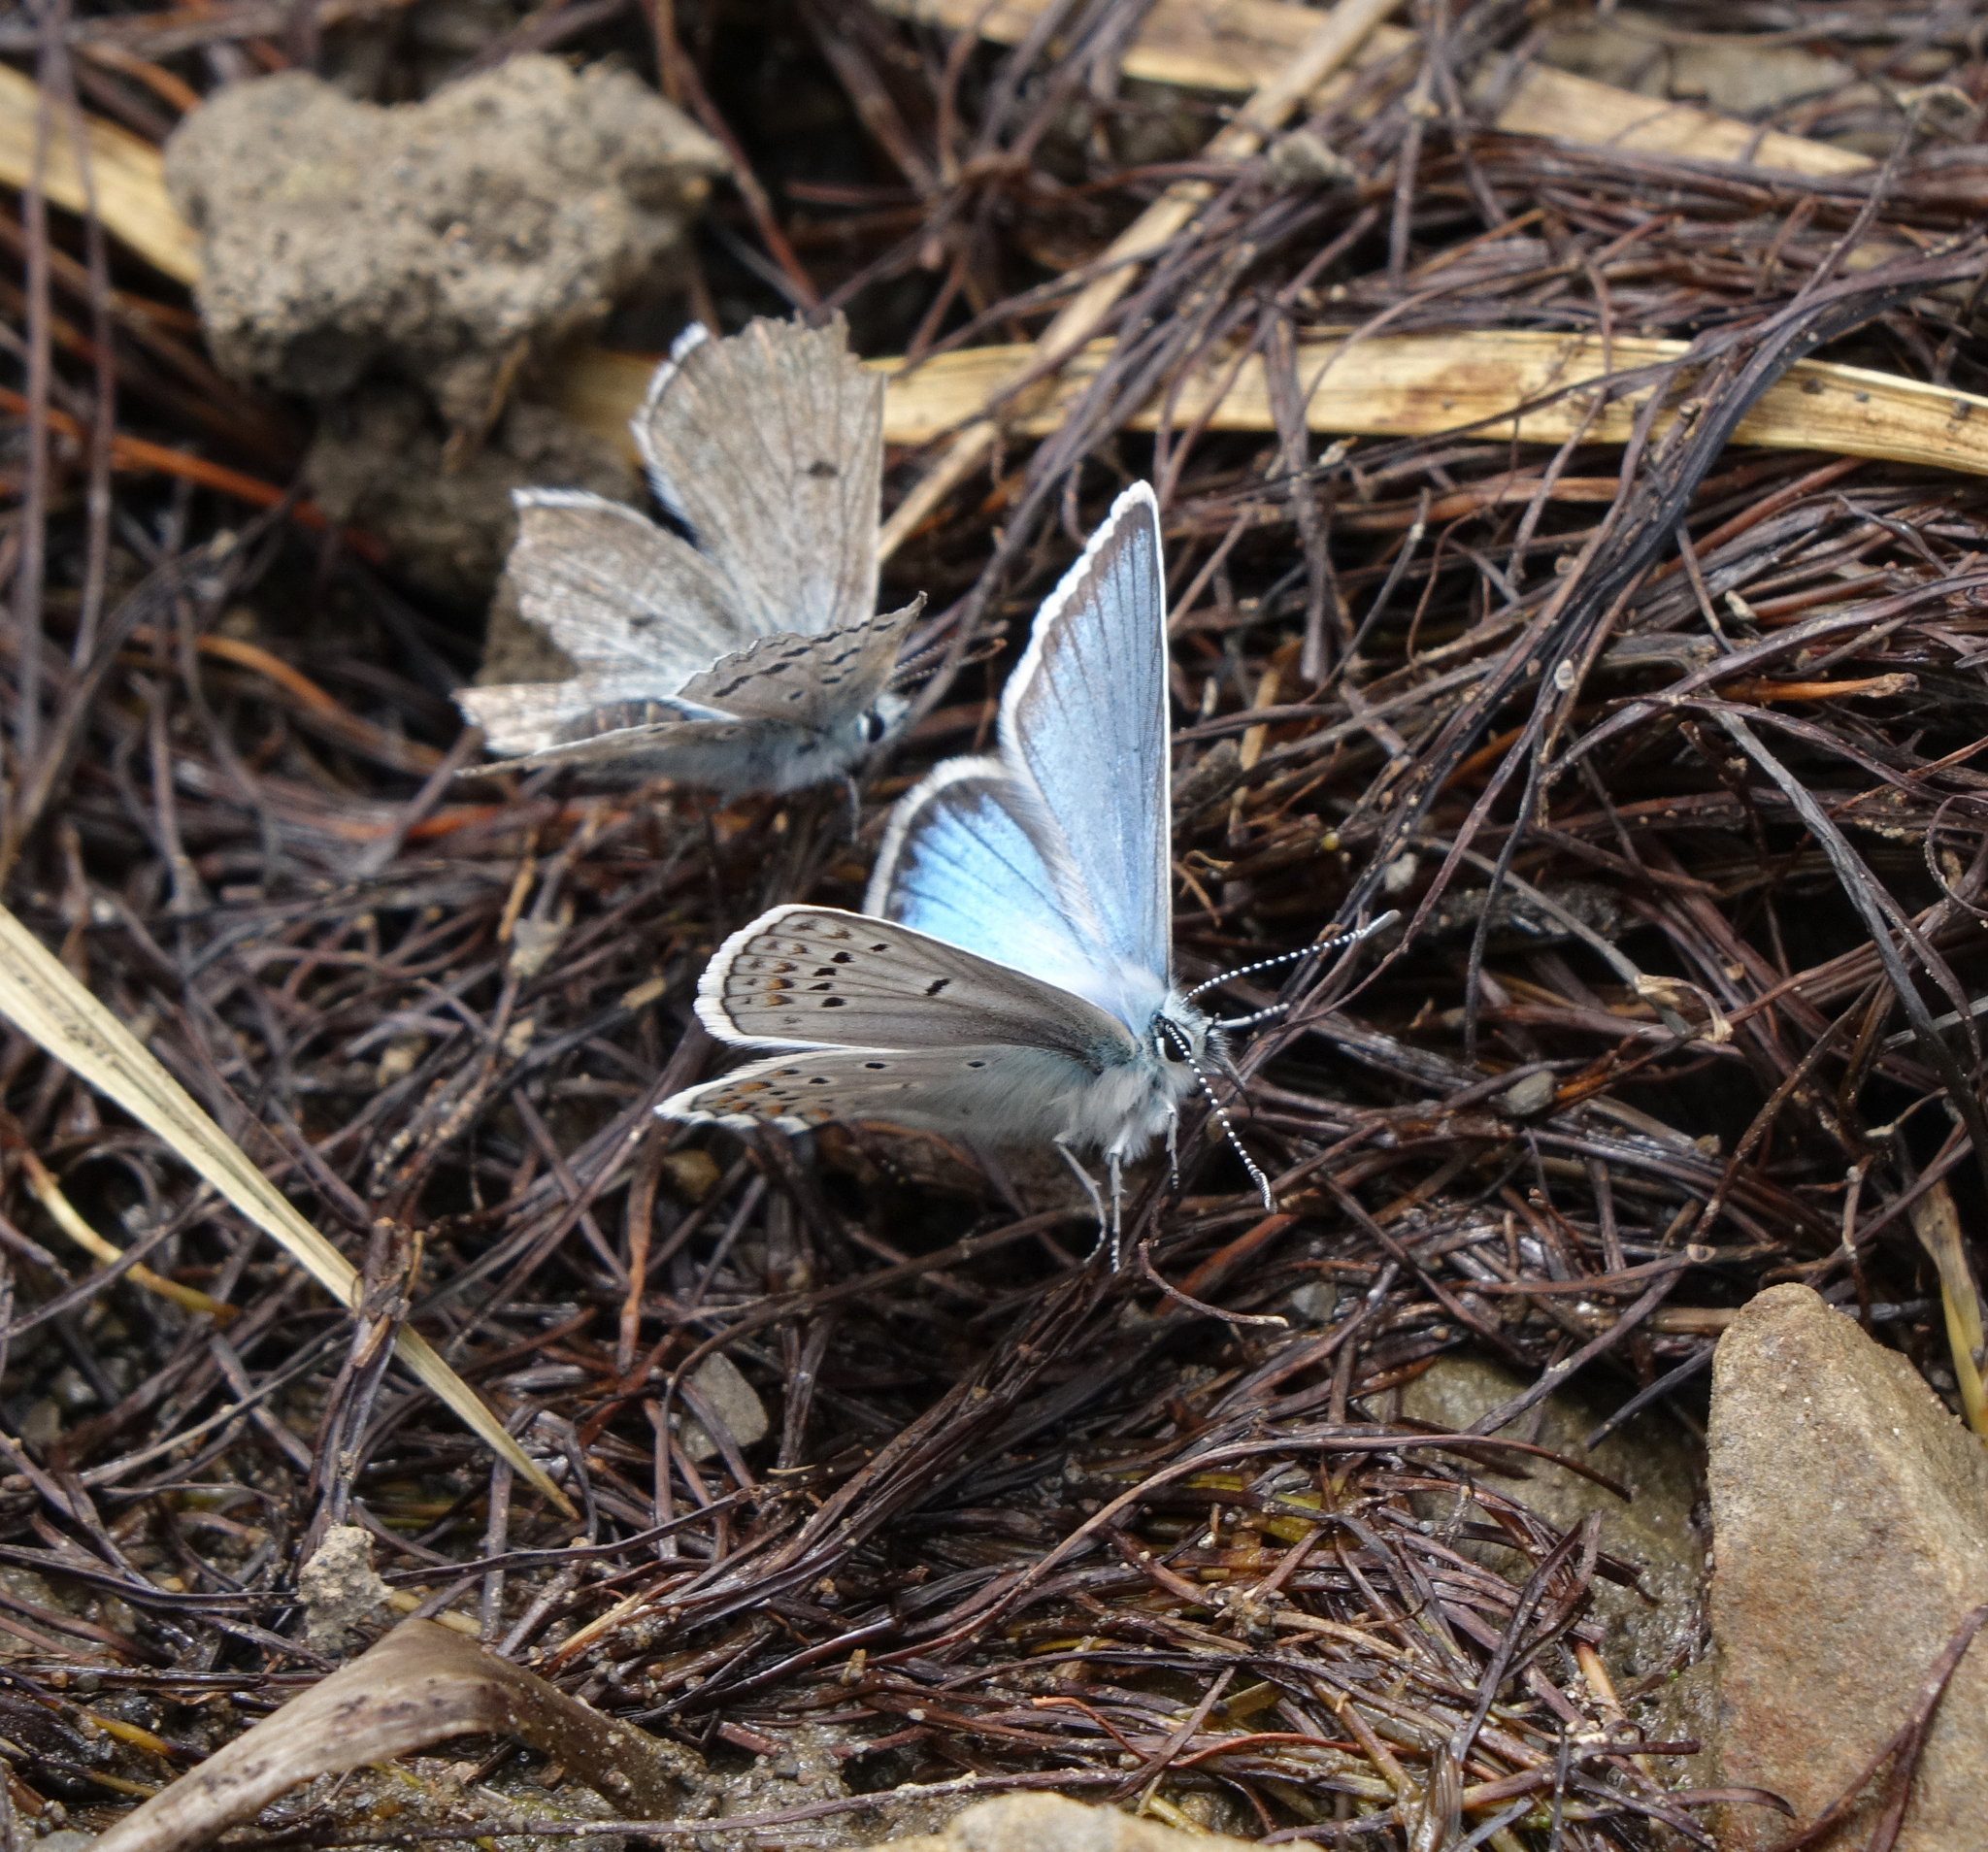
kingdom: Animalia
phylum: Arthropoda
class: Insecta
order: Lepidoptera
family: Lycaenidae
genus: Agriades
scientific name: Agriades pyrenaica
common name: Gavarnie blue
